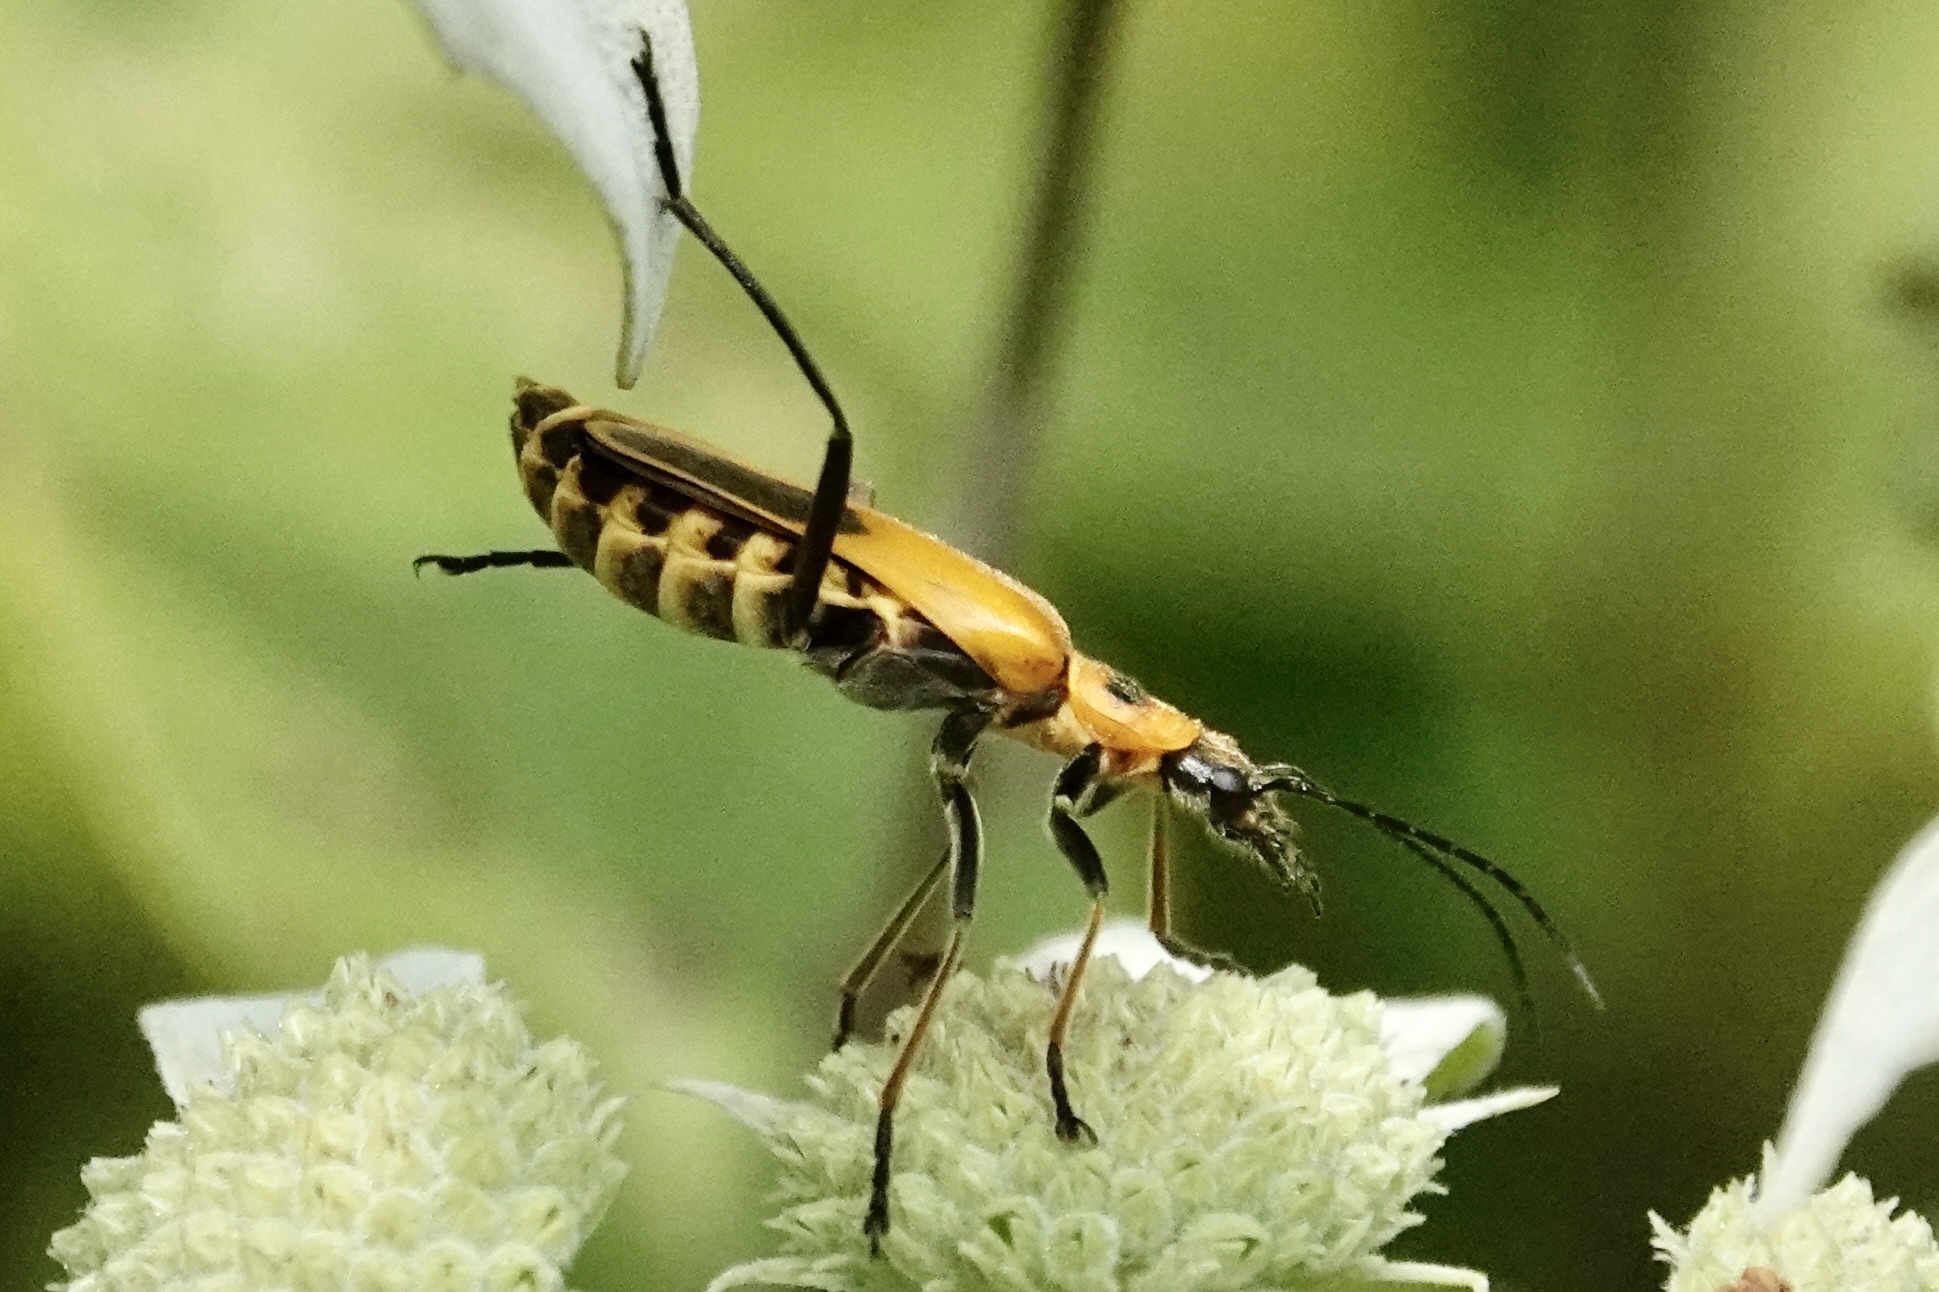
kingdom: Animalia
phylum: Arthropoda
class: Insecta
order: Coleoptera
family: Cantharidae
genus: Chauliognathus
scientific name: Chauliognathus pensylvanicus
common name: Goldenrod soldier beetle
